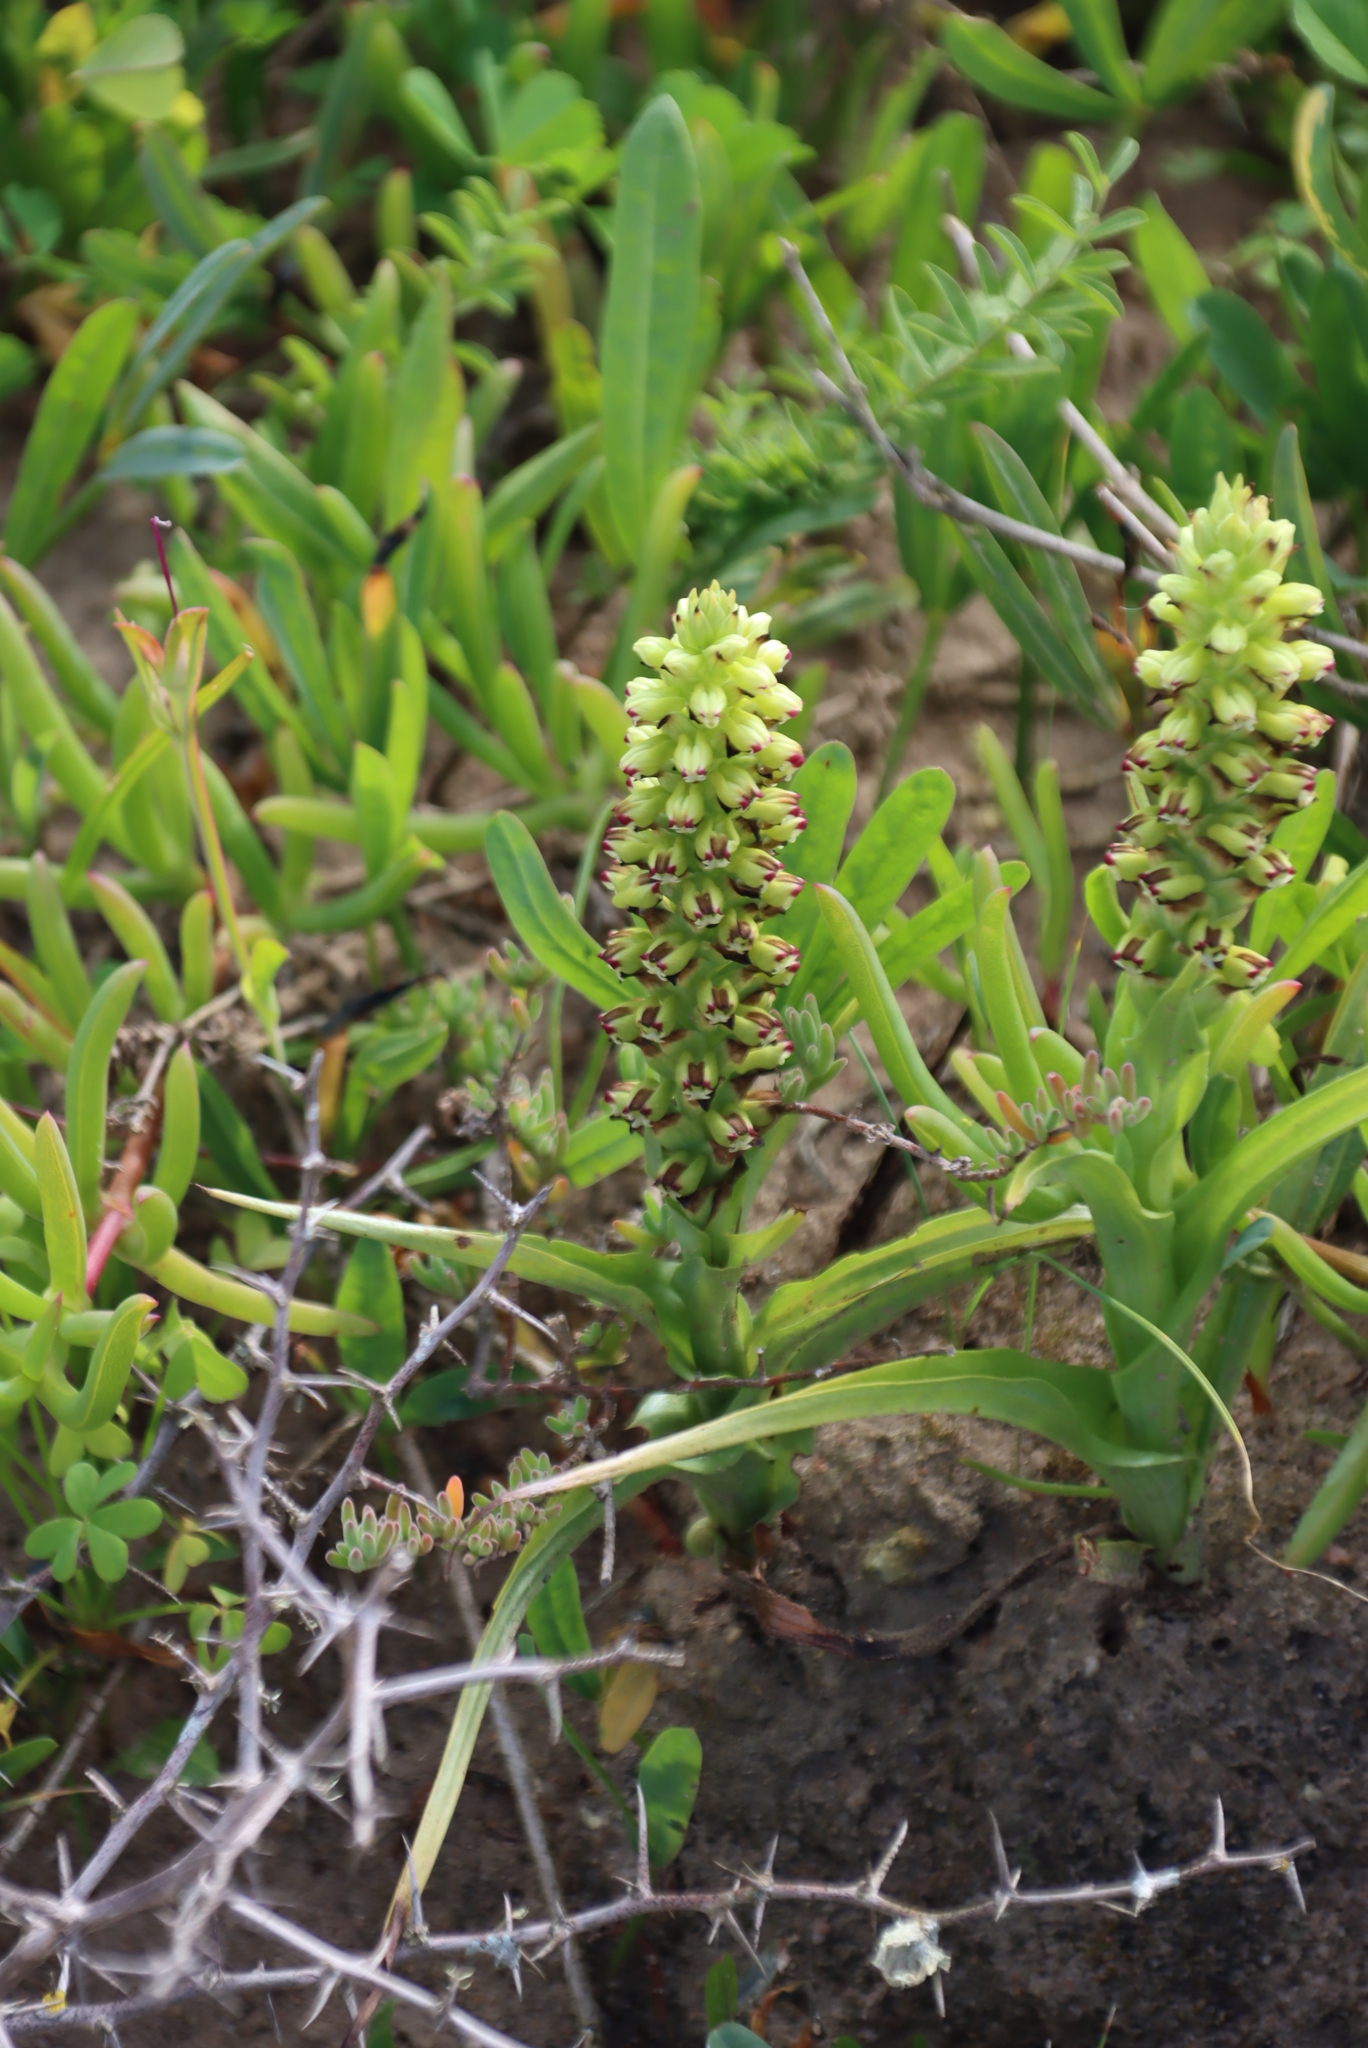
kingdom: Plantae
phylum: Tracheophyta
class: Liliopsida
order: Asparagales
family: Orchidaceae
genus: Corycium
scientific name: Corycium orobanchoides
